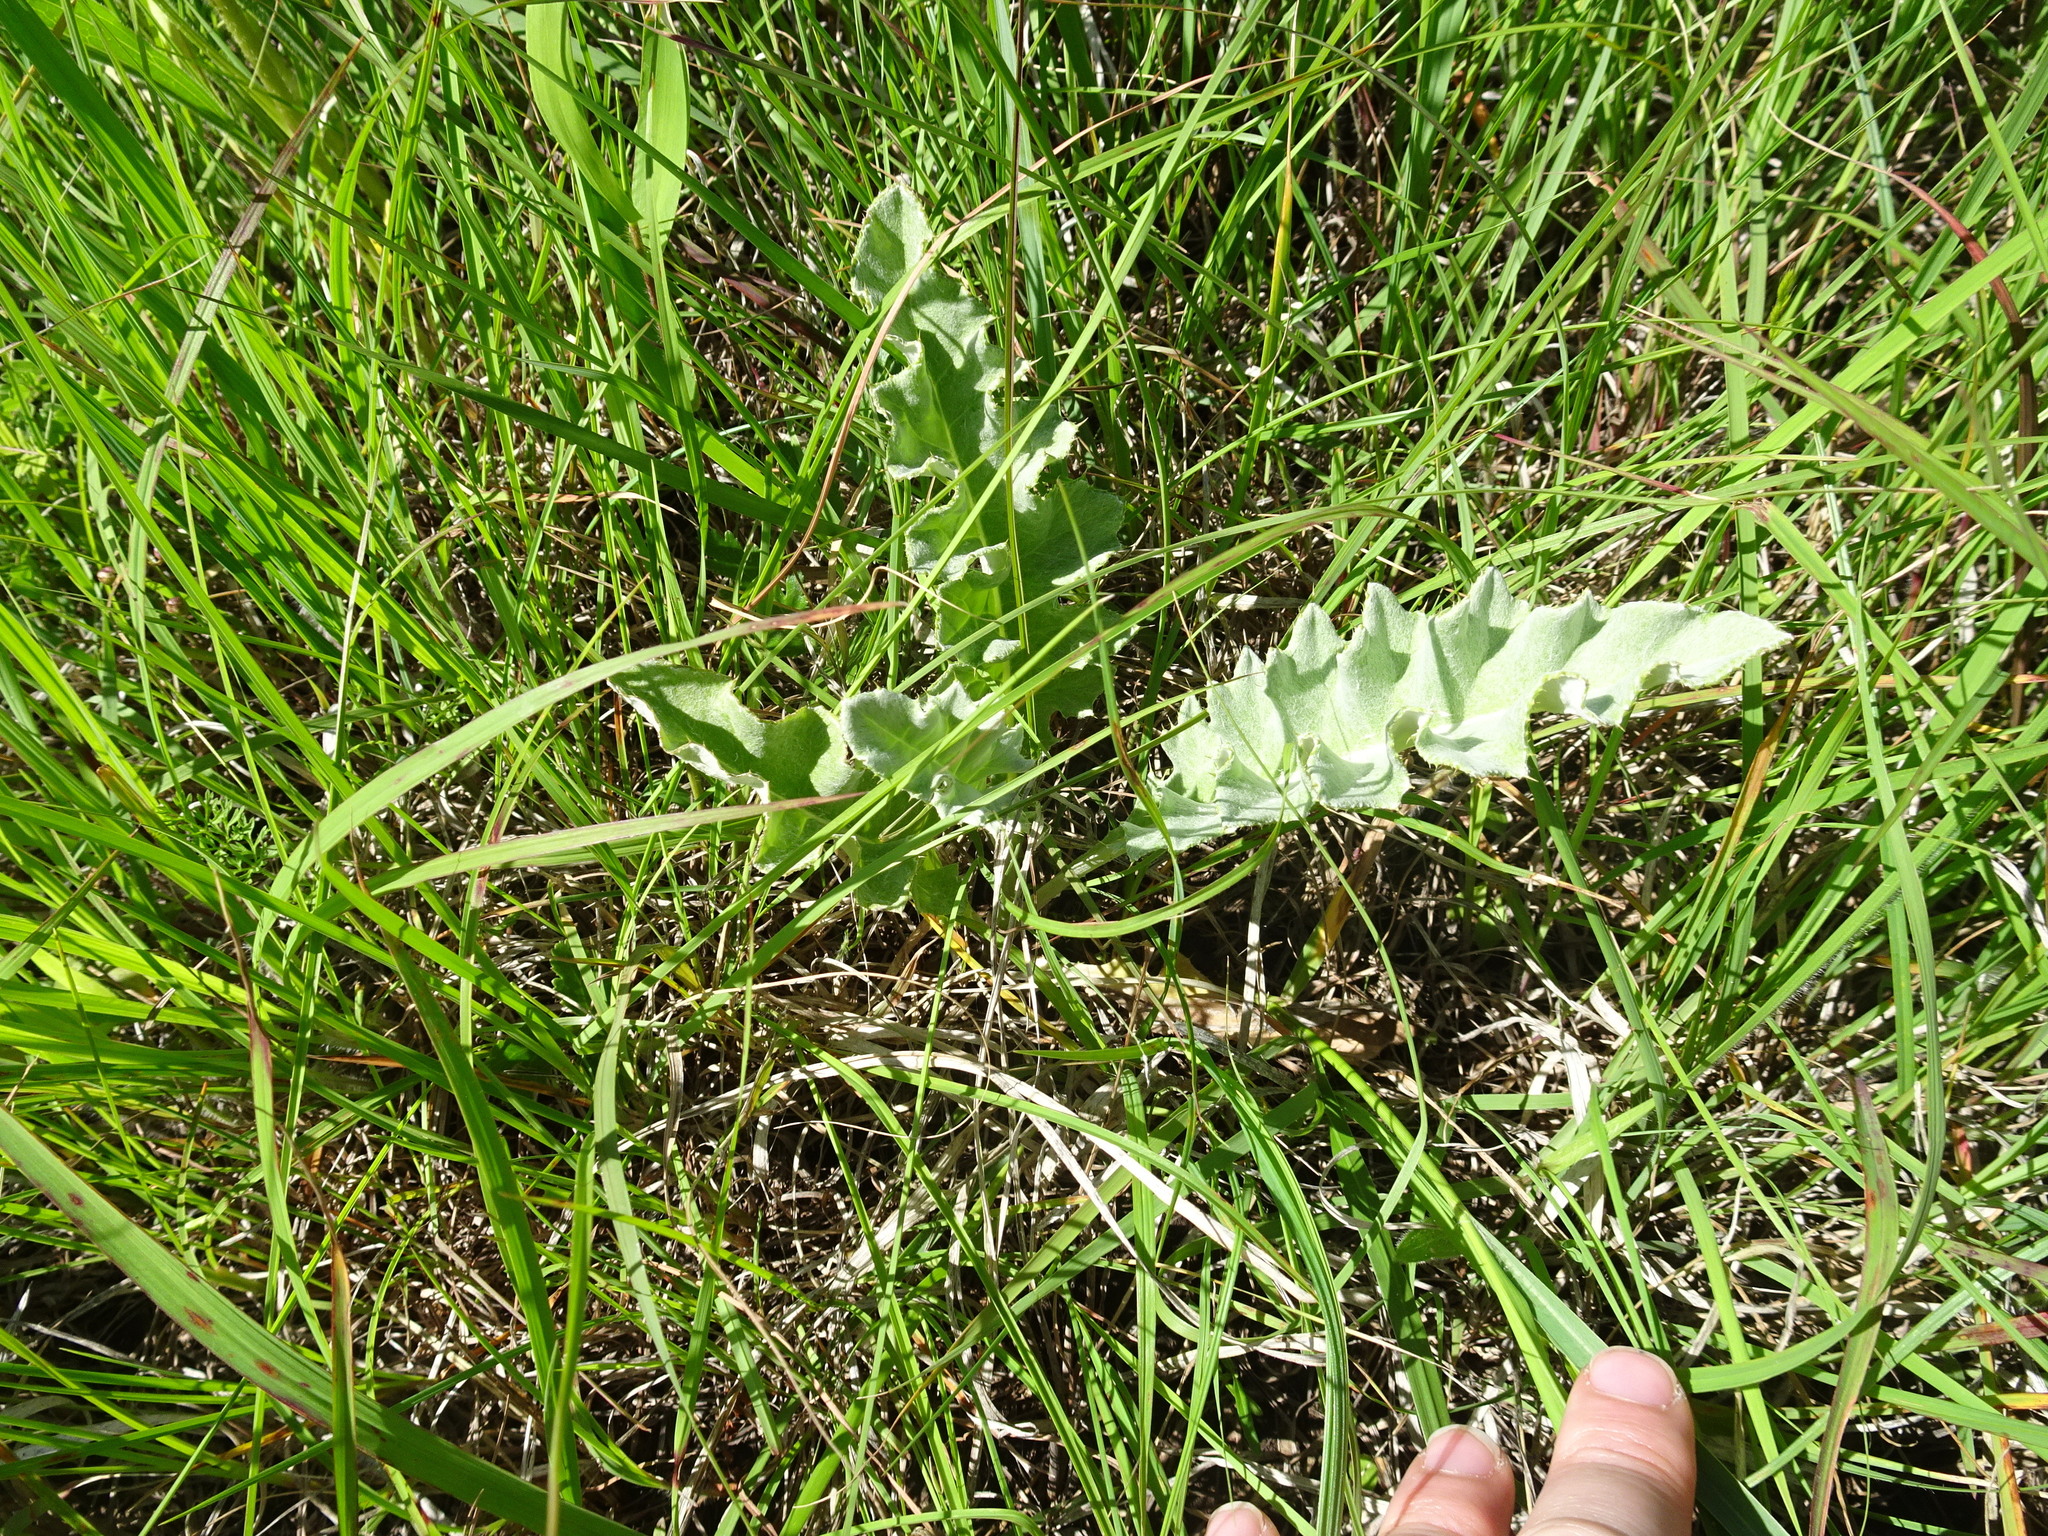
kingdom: Plantae
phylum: Tracheophyta
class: Magnoliopsida
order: Asterales
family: Asteraceae
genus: Cirsium
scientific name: Cirsium undulatum
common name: Pasture thistle
